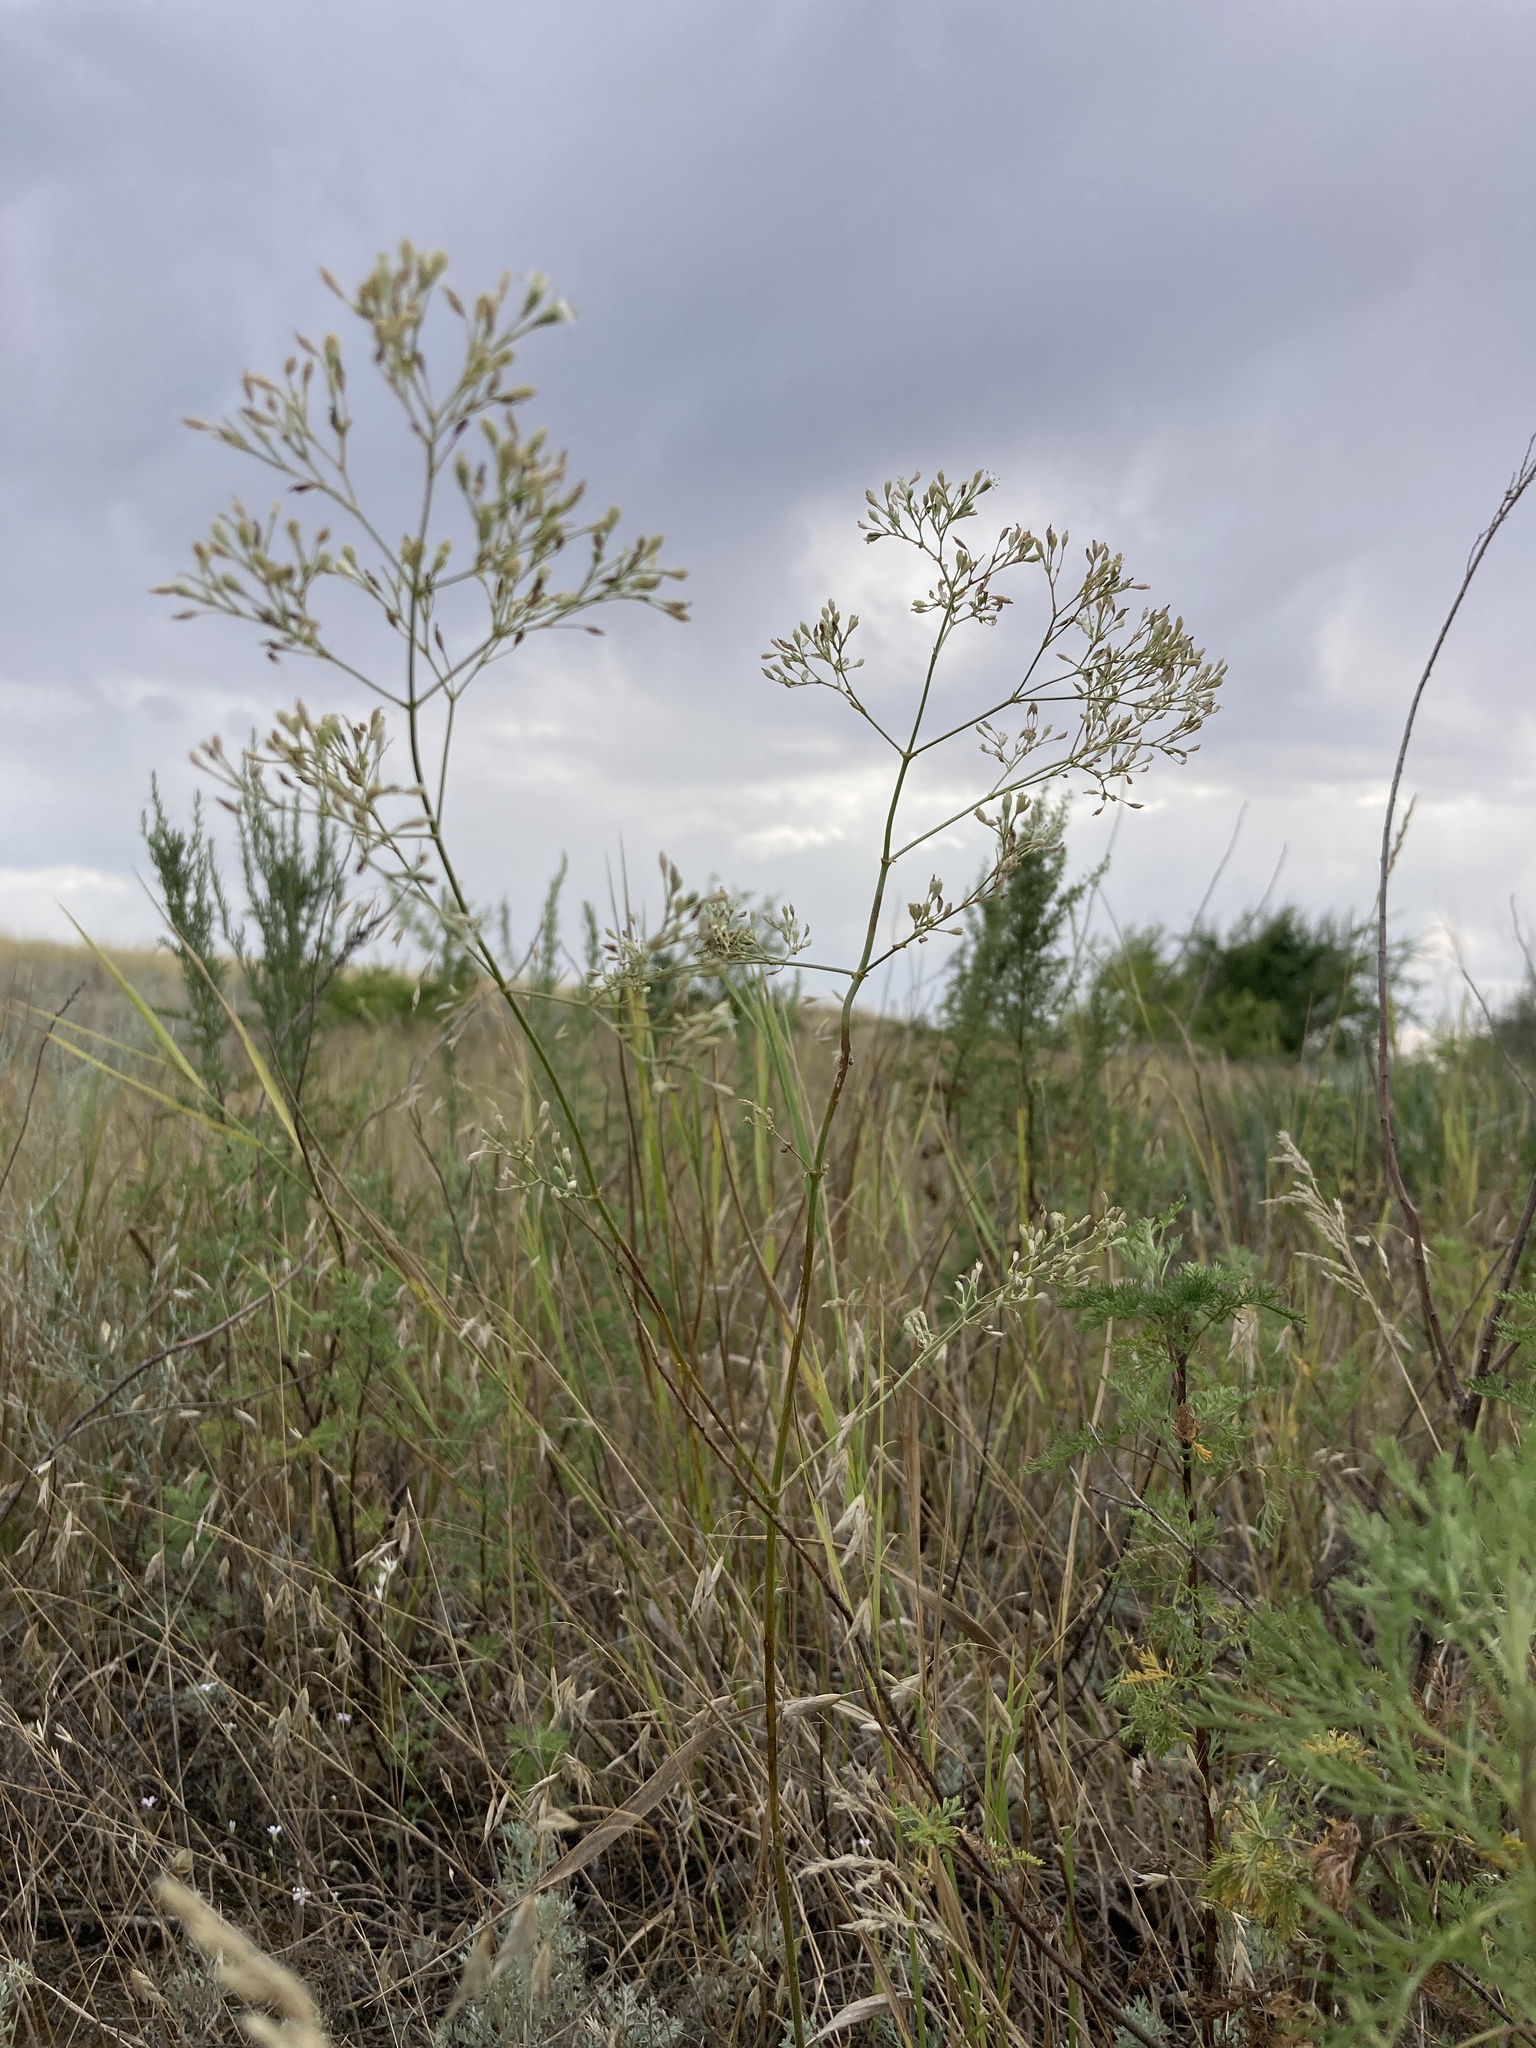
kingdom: Plantae
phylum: Tracheophyta
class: Magnoliopsida
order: Caryophyllales
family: Caryophyllaceae
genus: Silene
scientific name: Silene wolgensis
